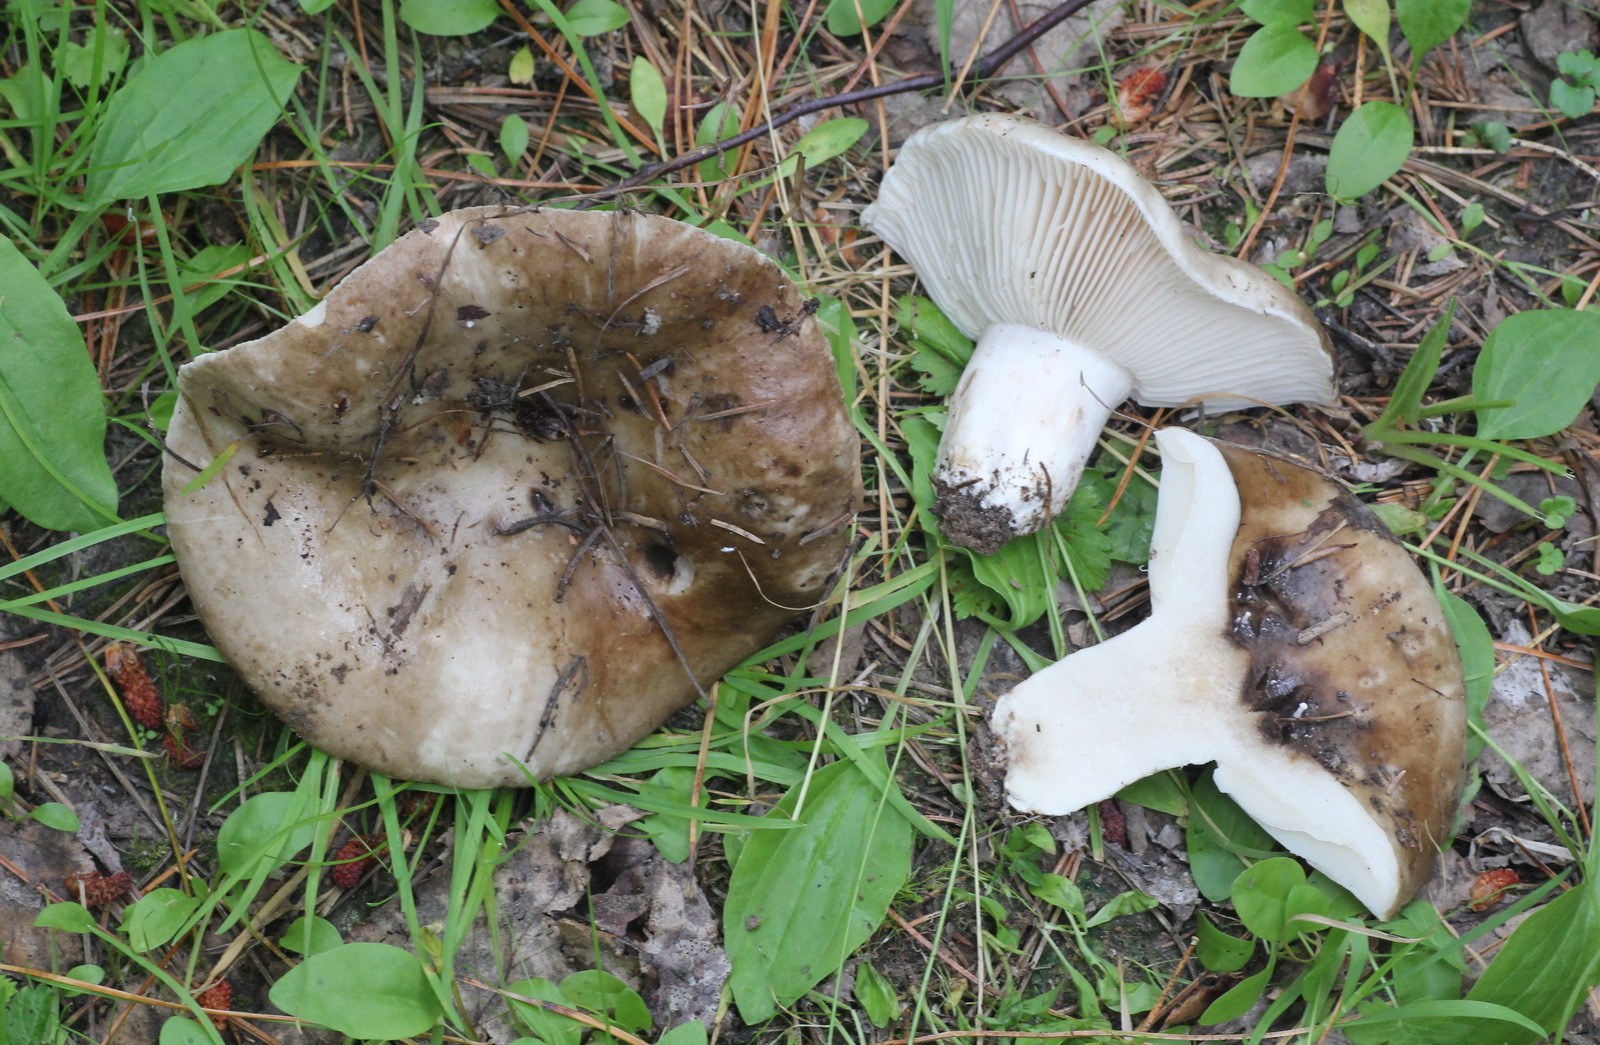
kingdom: Fungi
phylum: Basidiomycota
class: Agaricomycetes
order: Russulales
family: Russulaceae
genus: Russula
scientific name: Russula adusta
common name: Winecork brittlegill
